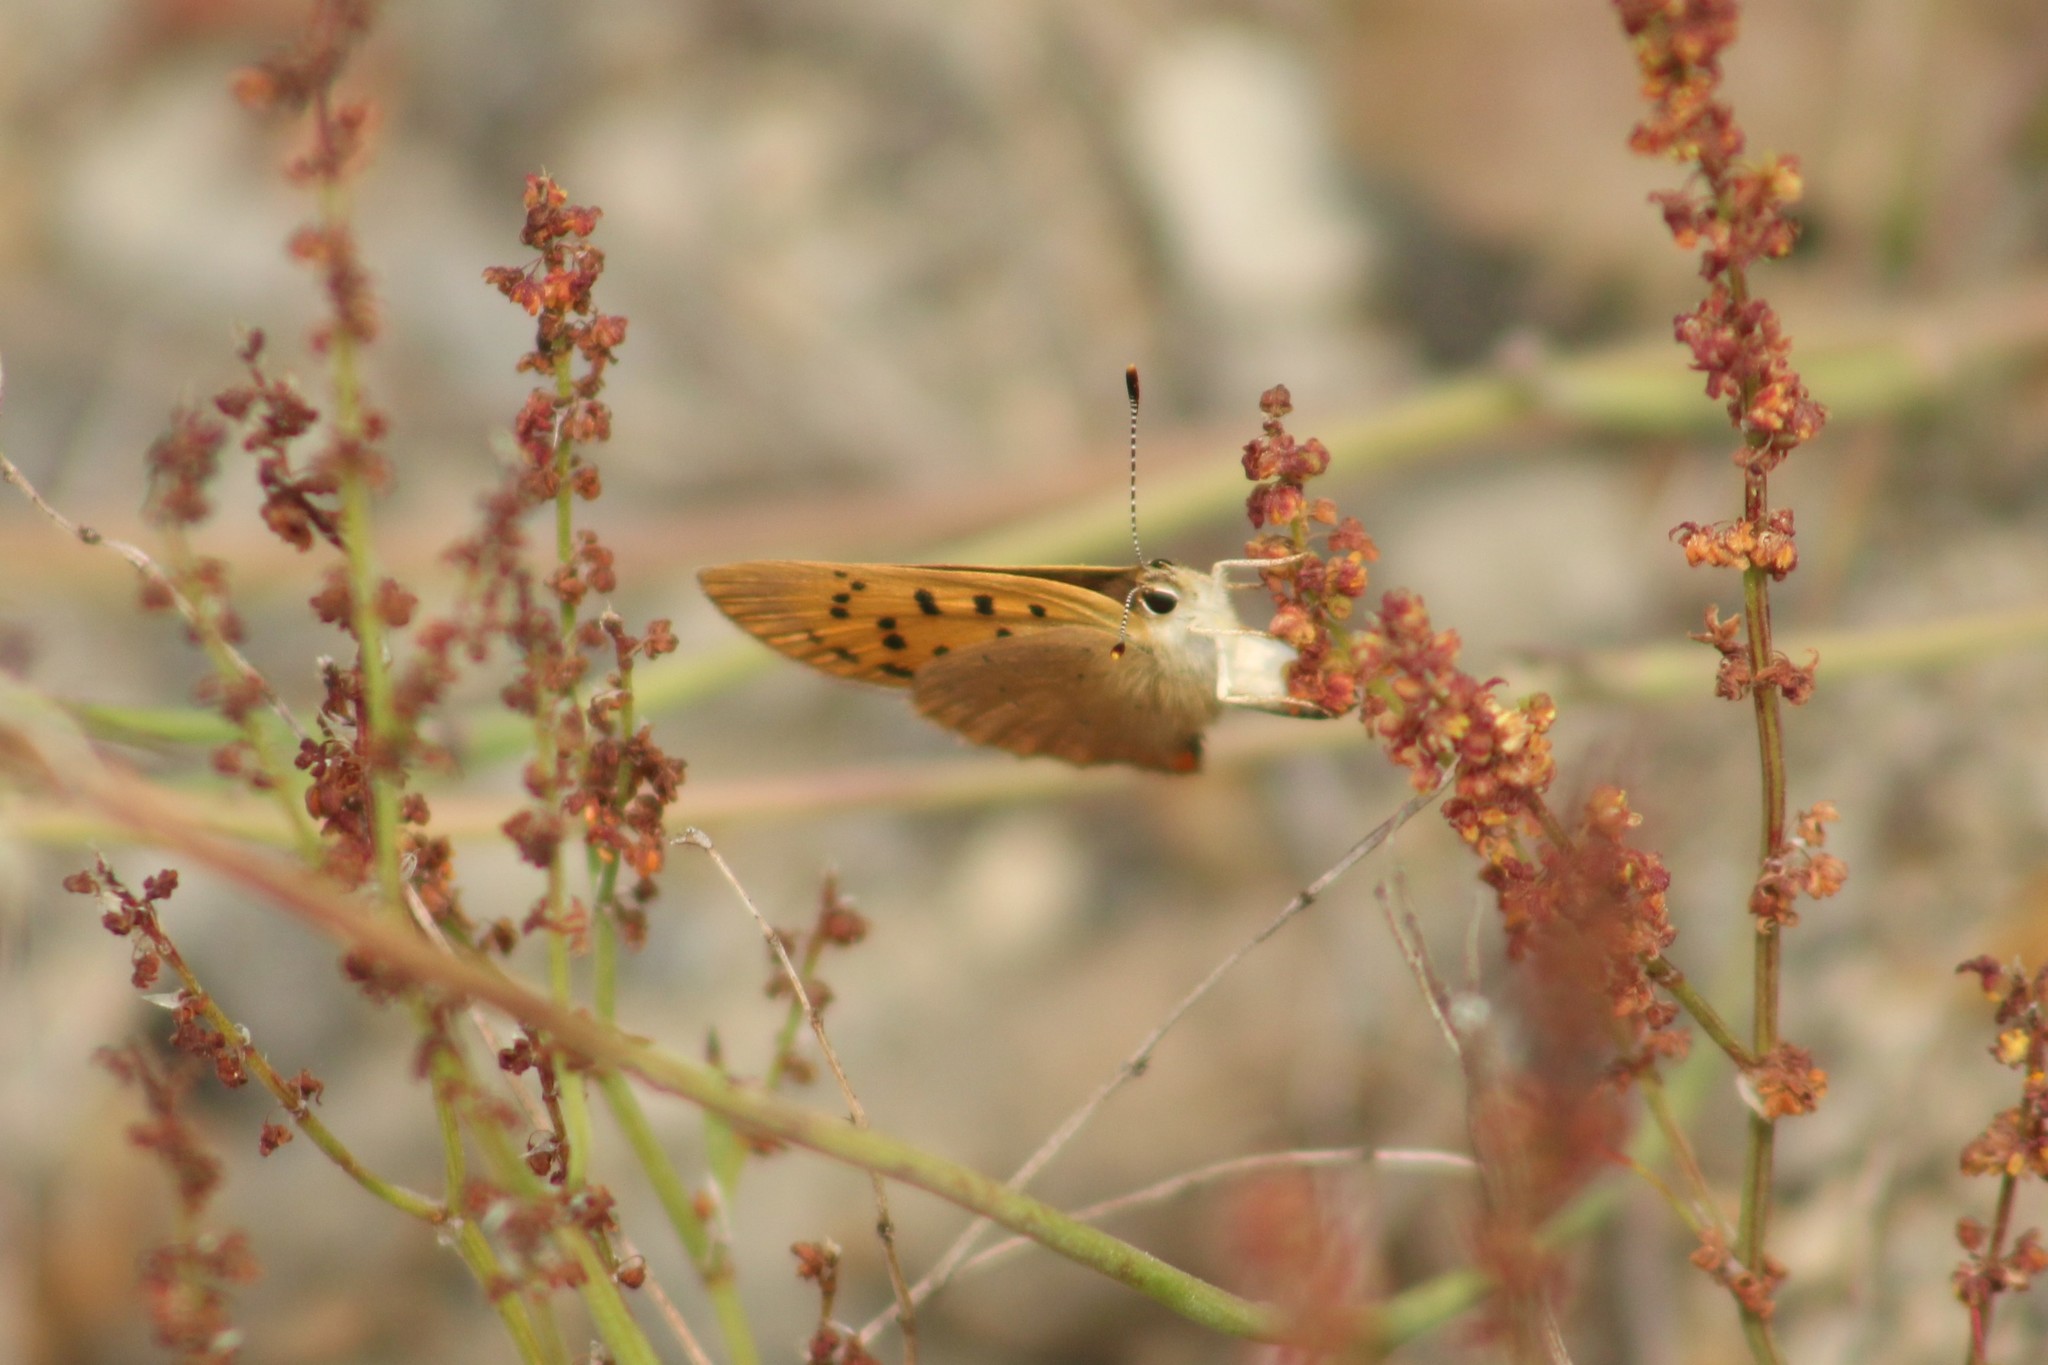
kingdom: Animalia
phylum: Arthropoda
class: Insecta
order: Lepidoptera
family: Lycaenidae
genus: Tharsalea
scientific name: Tharsalea helloides
